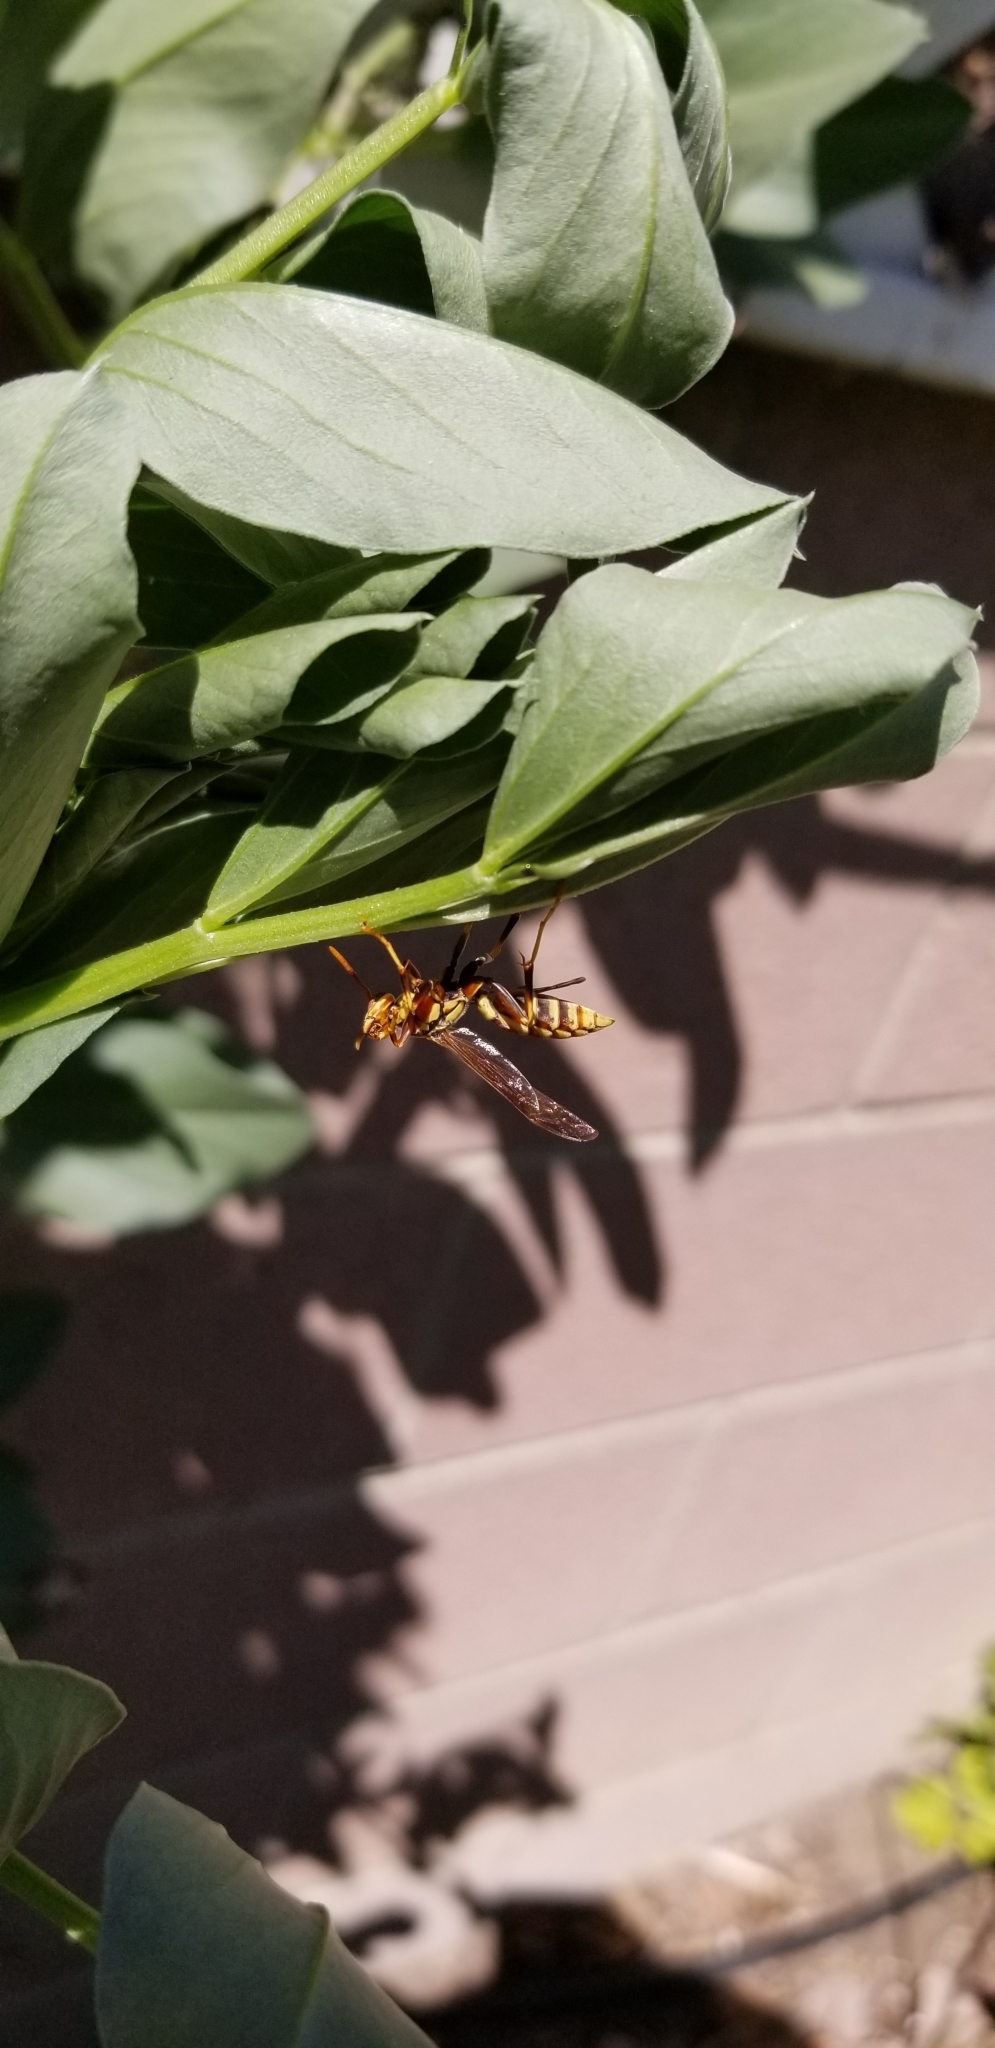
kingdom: Animalia
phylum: Arthropoda
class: Insecta
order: Hymenoptera
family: Eumenidae
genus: Polistes
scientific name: Polistes exclamans
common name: Paper wasp
